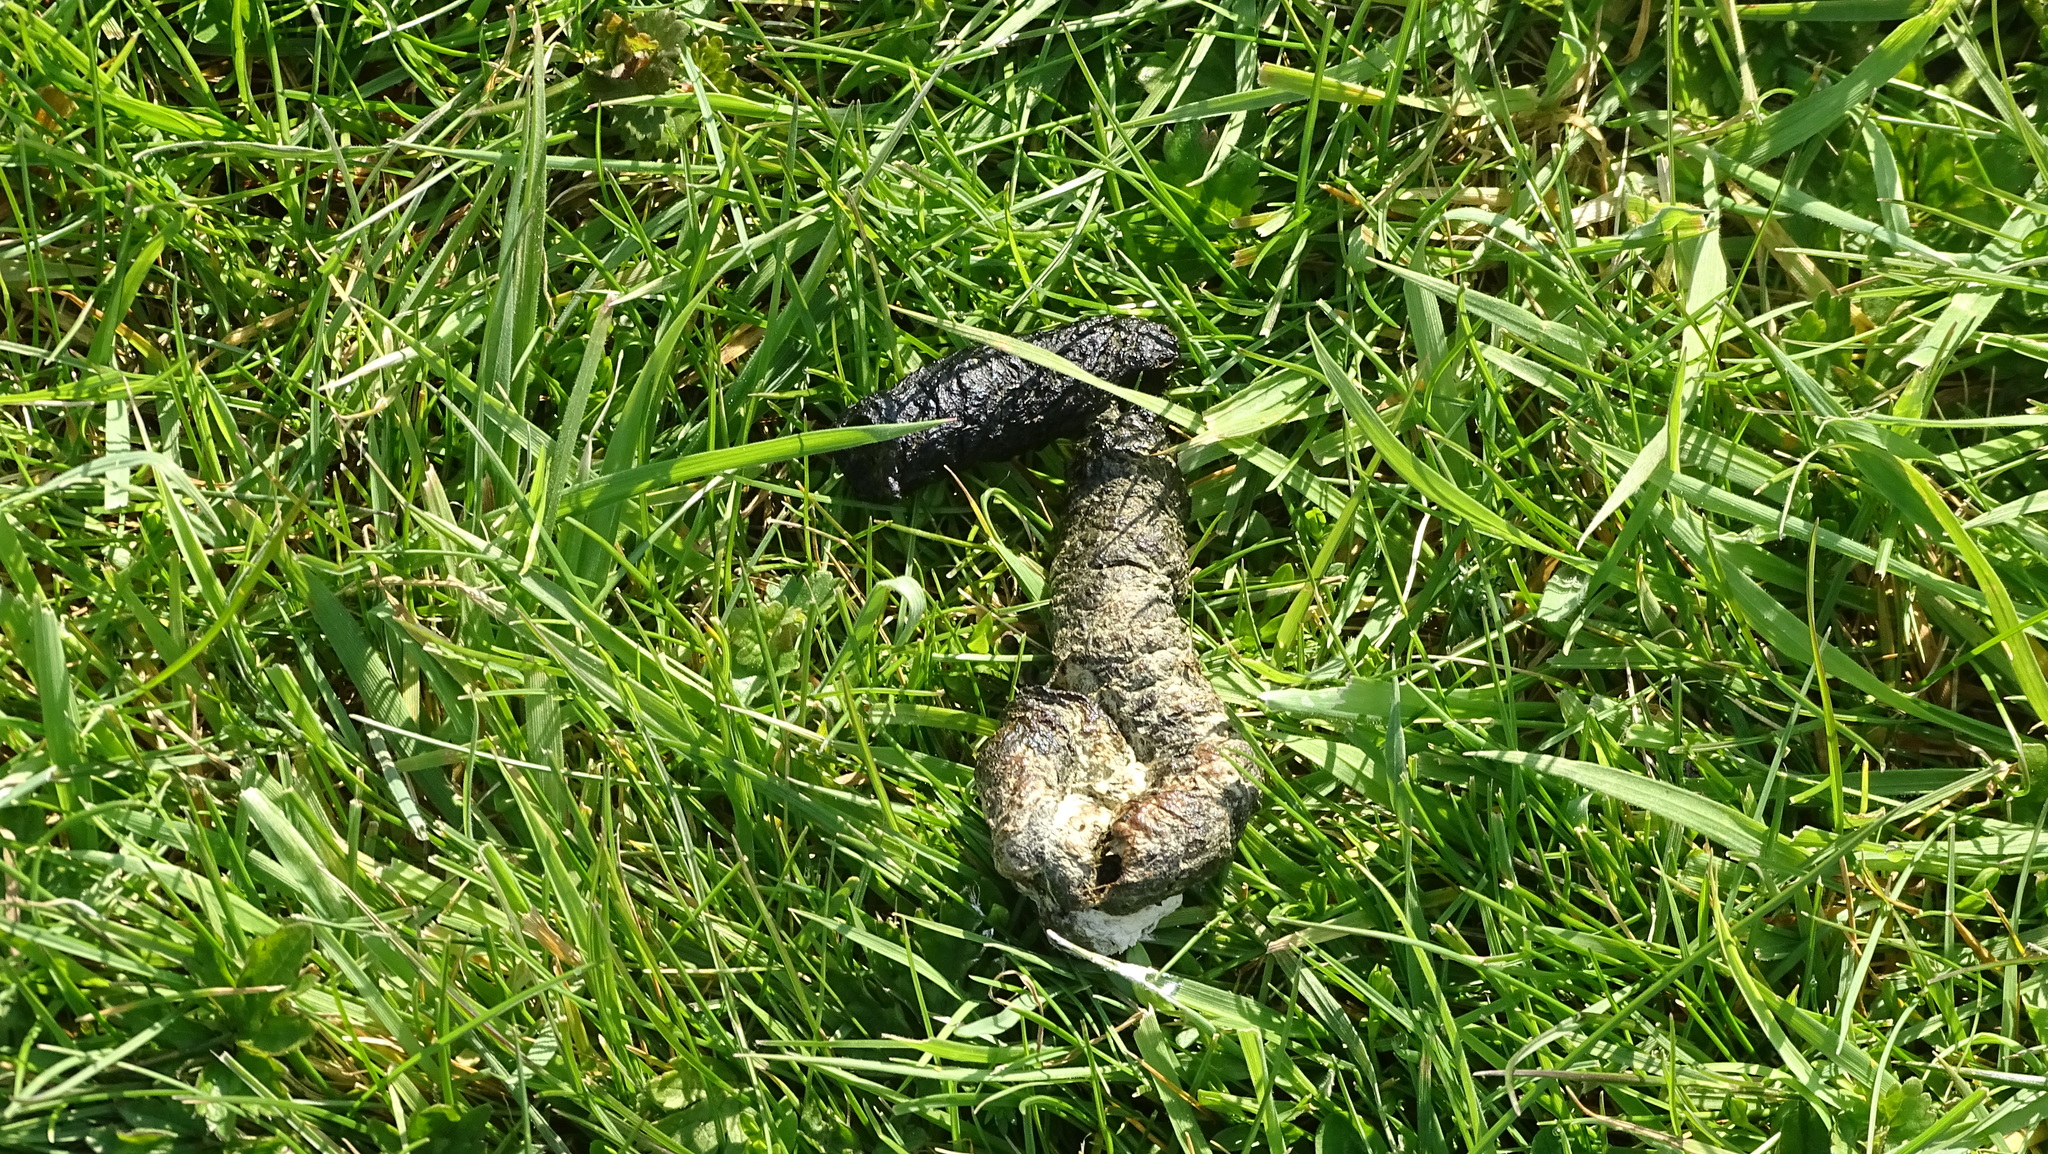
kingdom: Animalia
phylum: Chordata
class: Aves
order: Anseriformes
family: Anatidae
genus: Alopochen
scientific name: Alopochen aegyptiaca
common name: Egyptian goose
